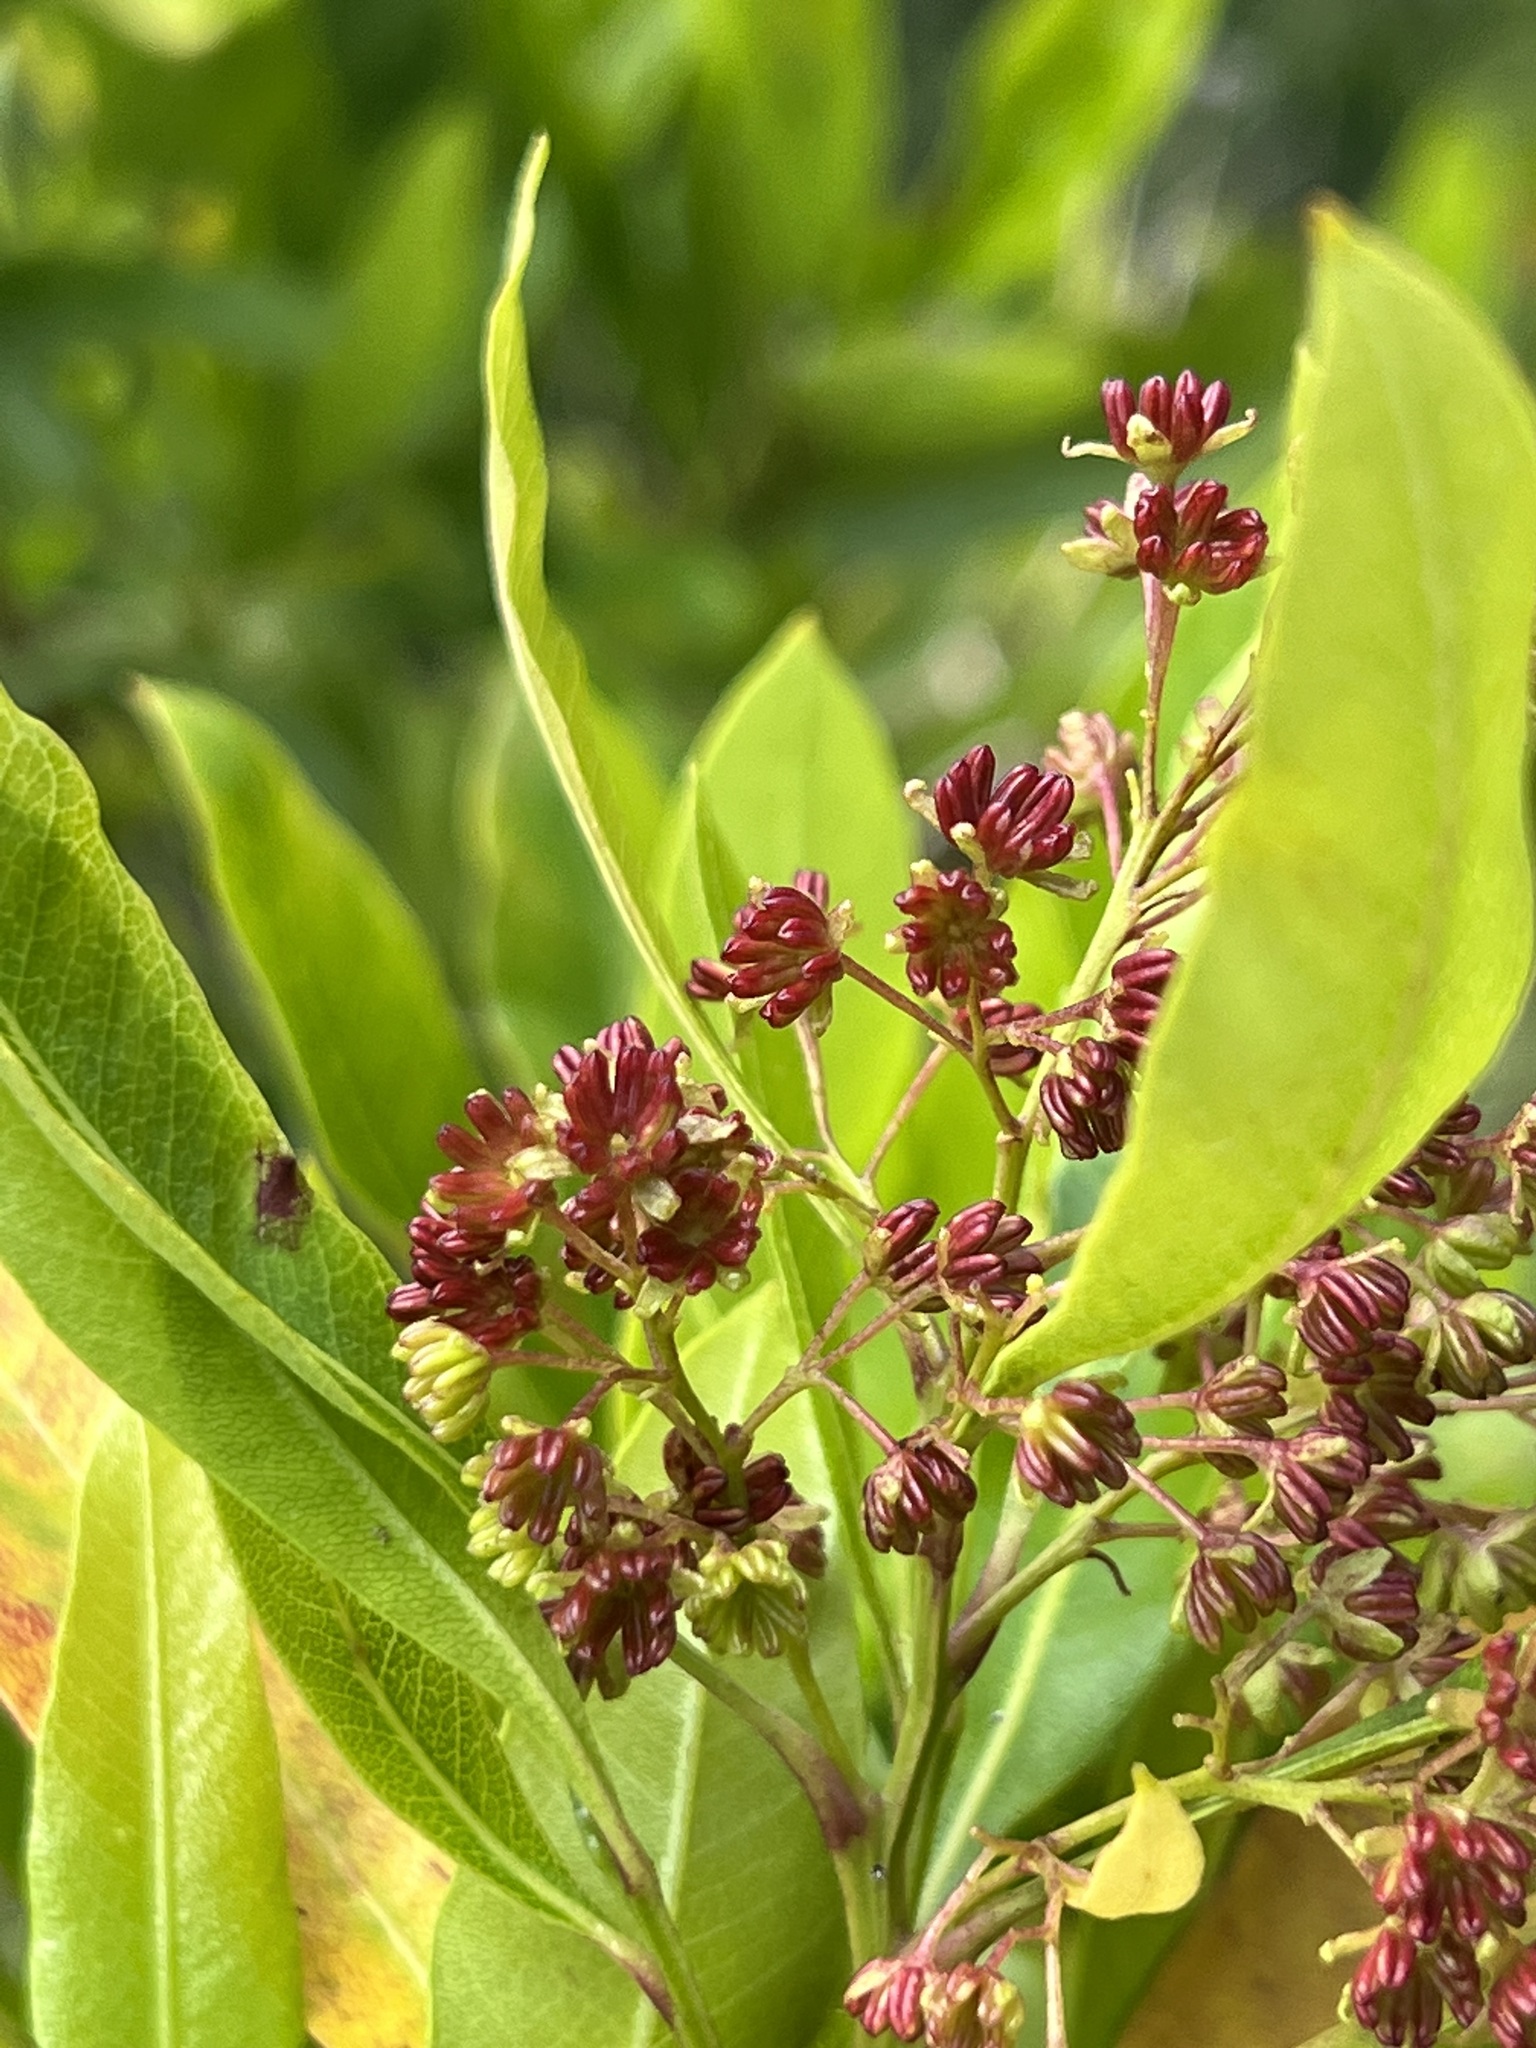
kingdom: Plantae
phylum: Tracheophyta
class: Magnoliopsida
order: Sapindales
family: Sapindaceae
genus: Dodonaea
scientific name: Dodonaea viscosa
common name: Hopbush
